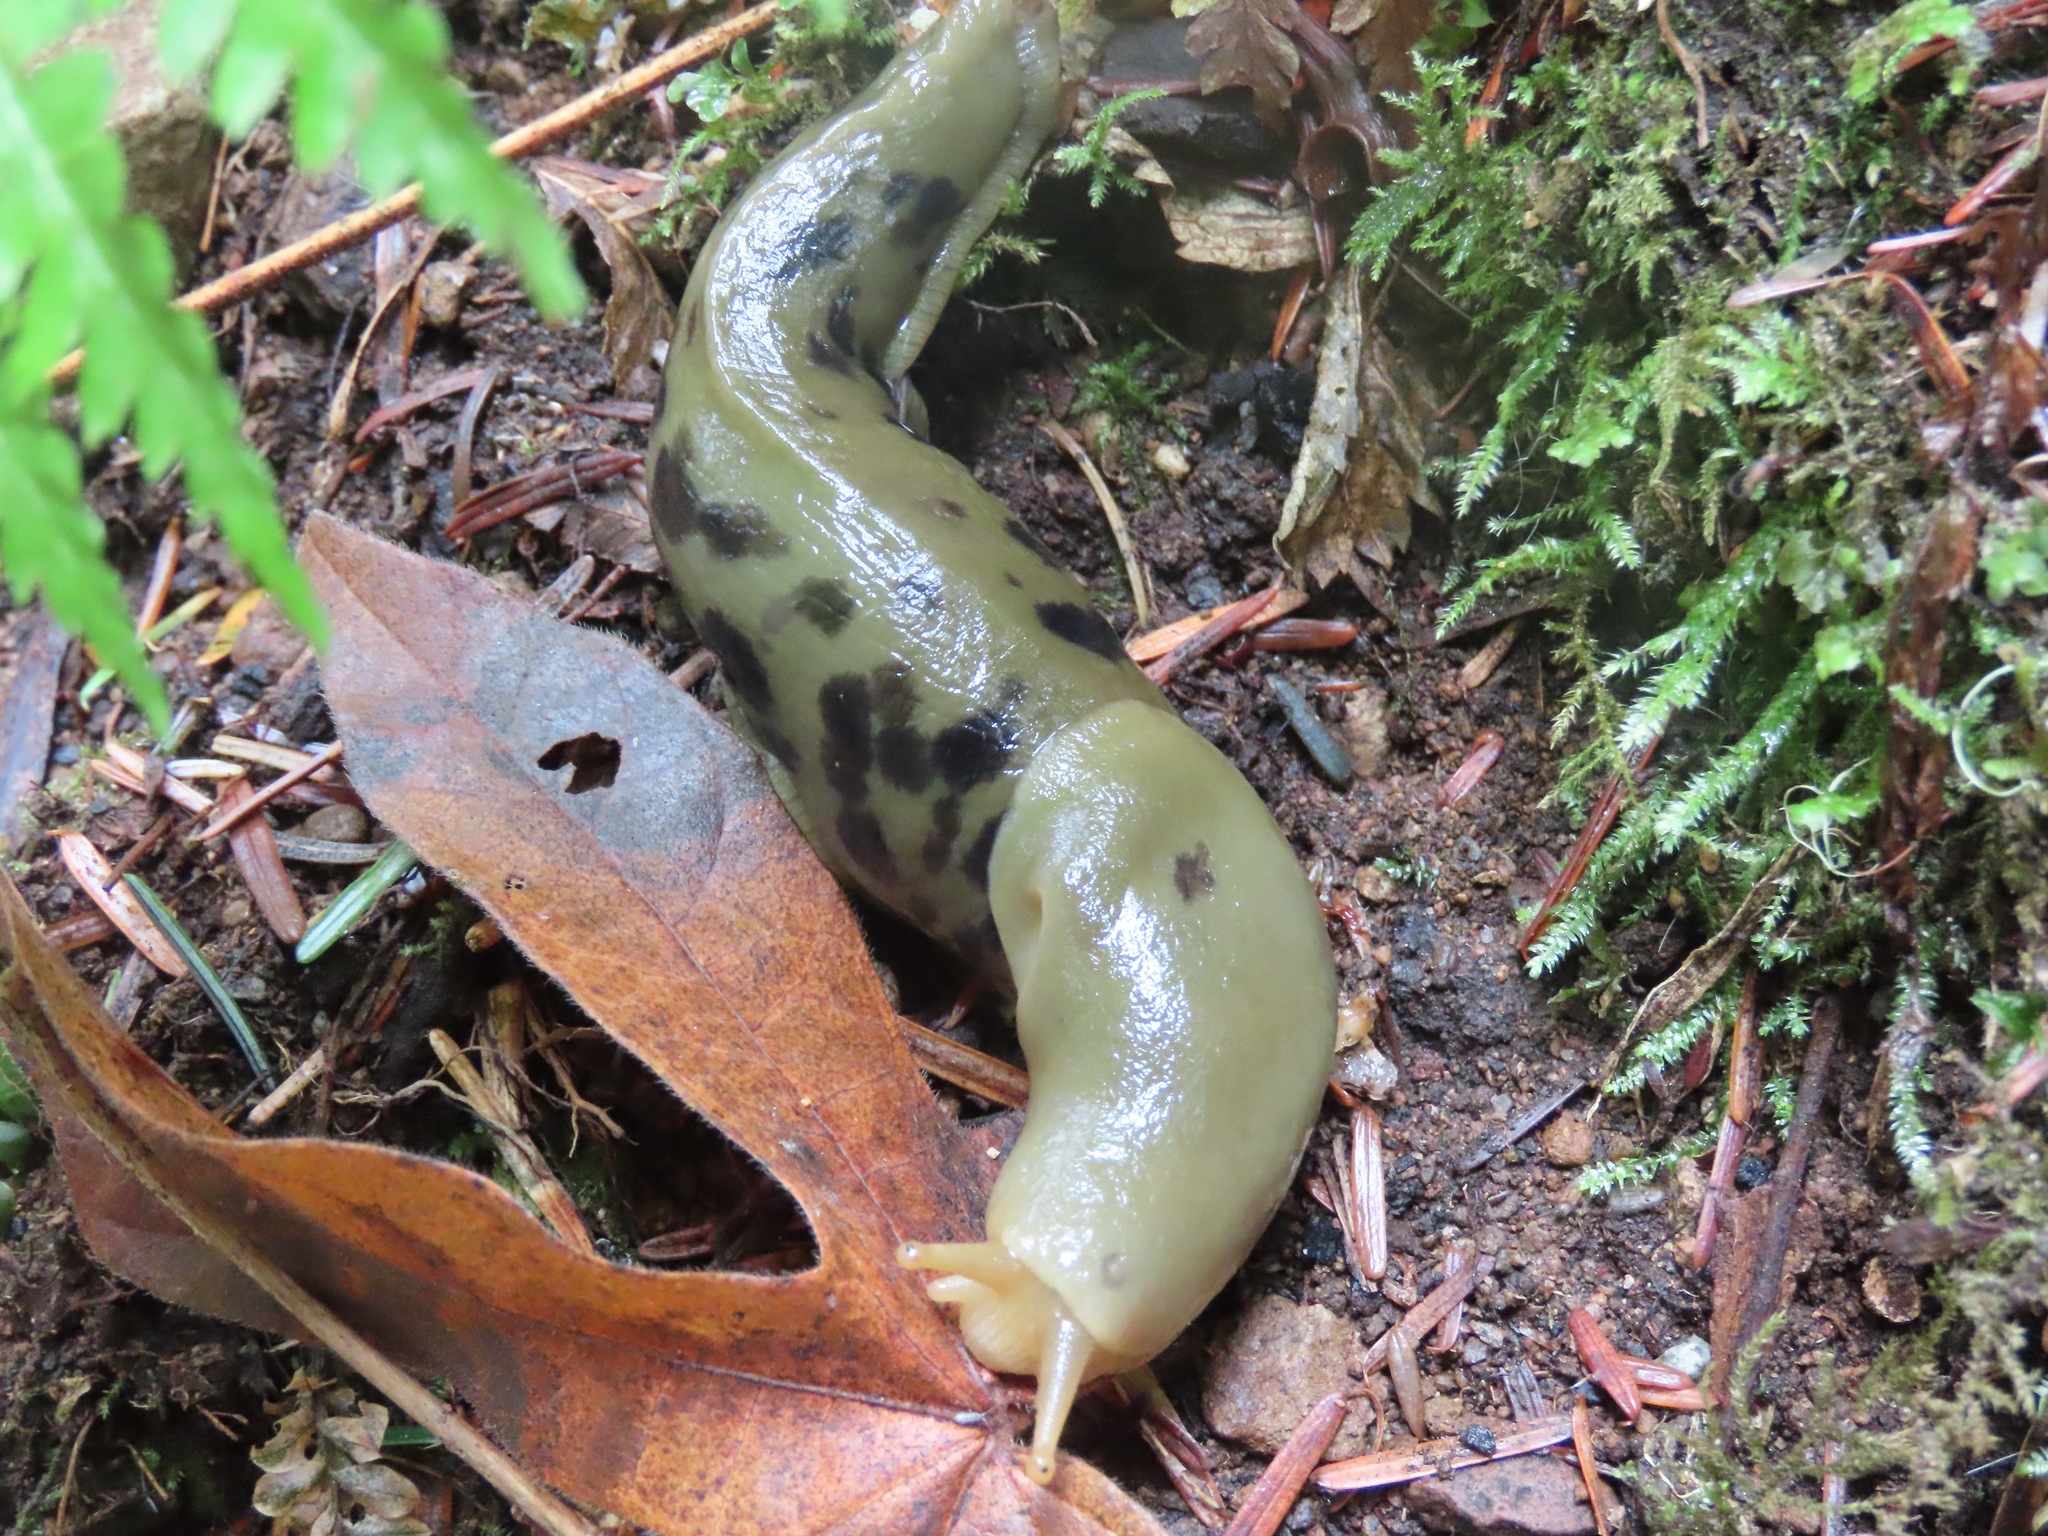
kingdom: Animalia
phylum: Mollusca
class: Gastropoda
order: Stylommatophora
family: Ariolimacidae
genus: Ariolimax
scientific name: Ariolimax columbianus
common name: Pacific banana slug
